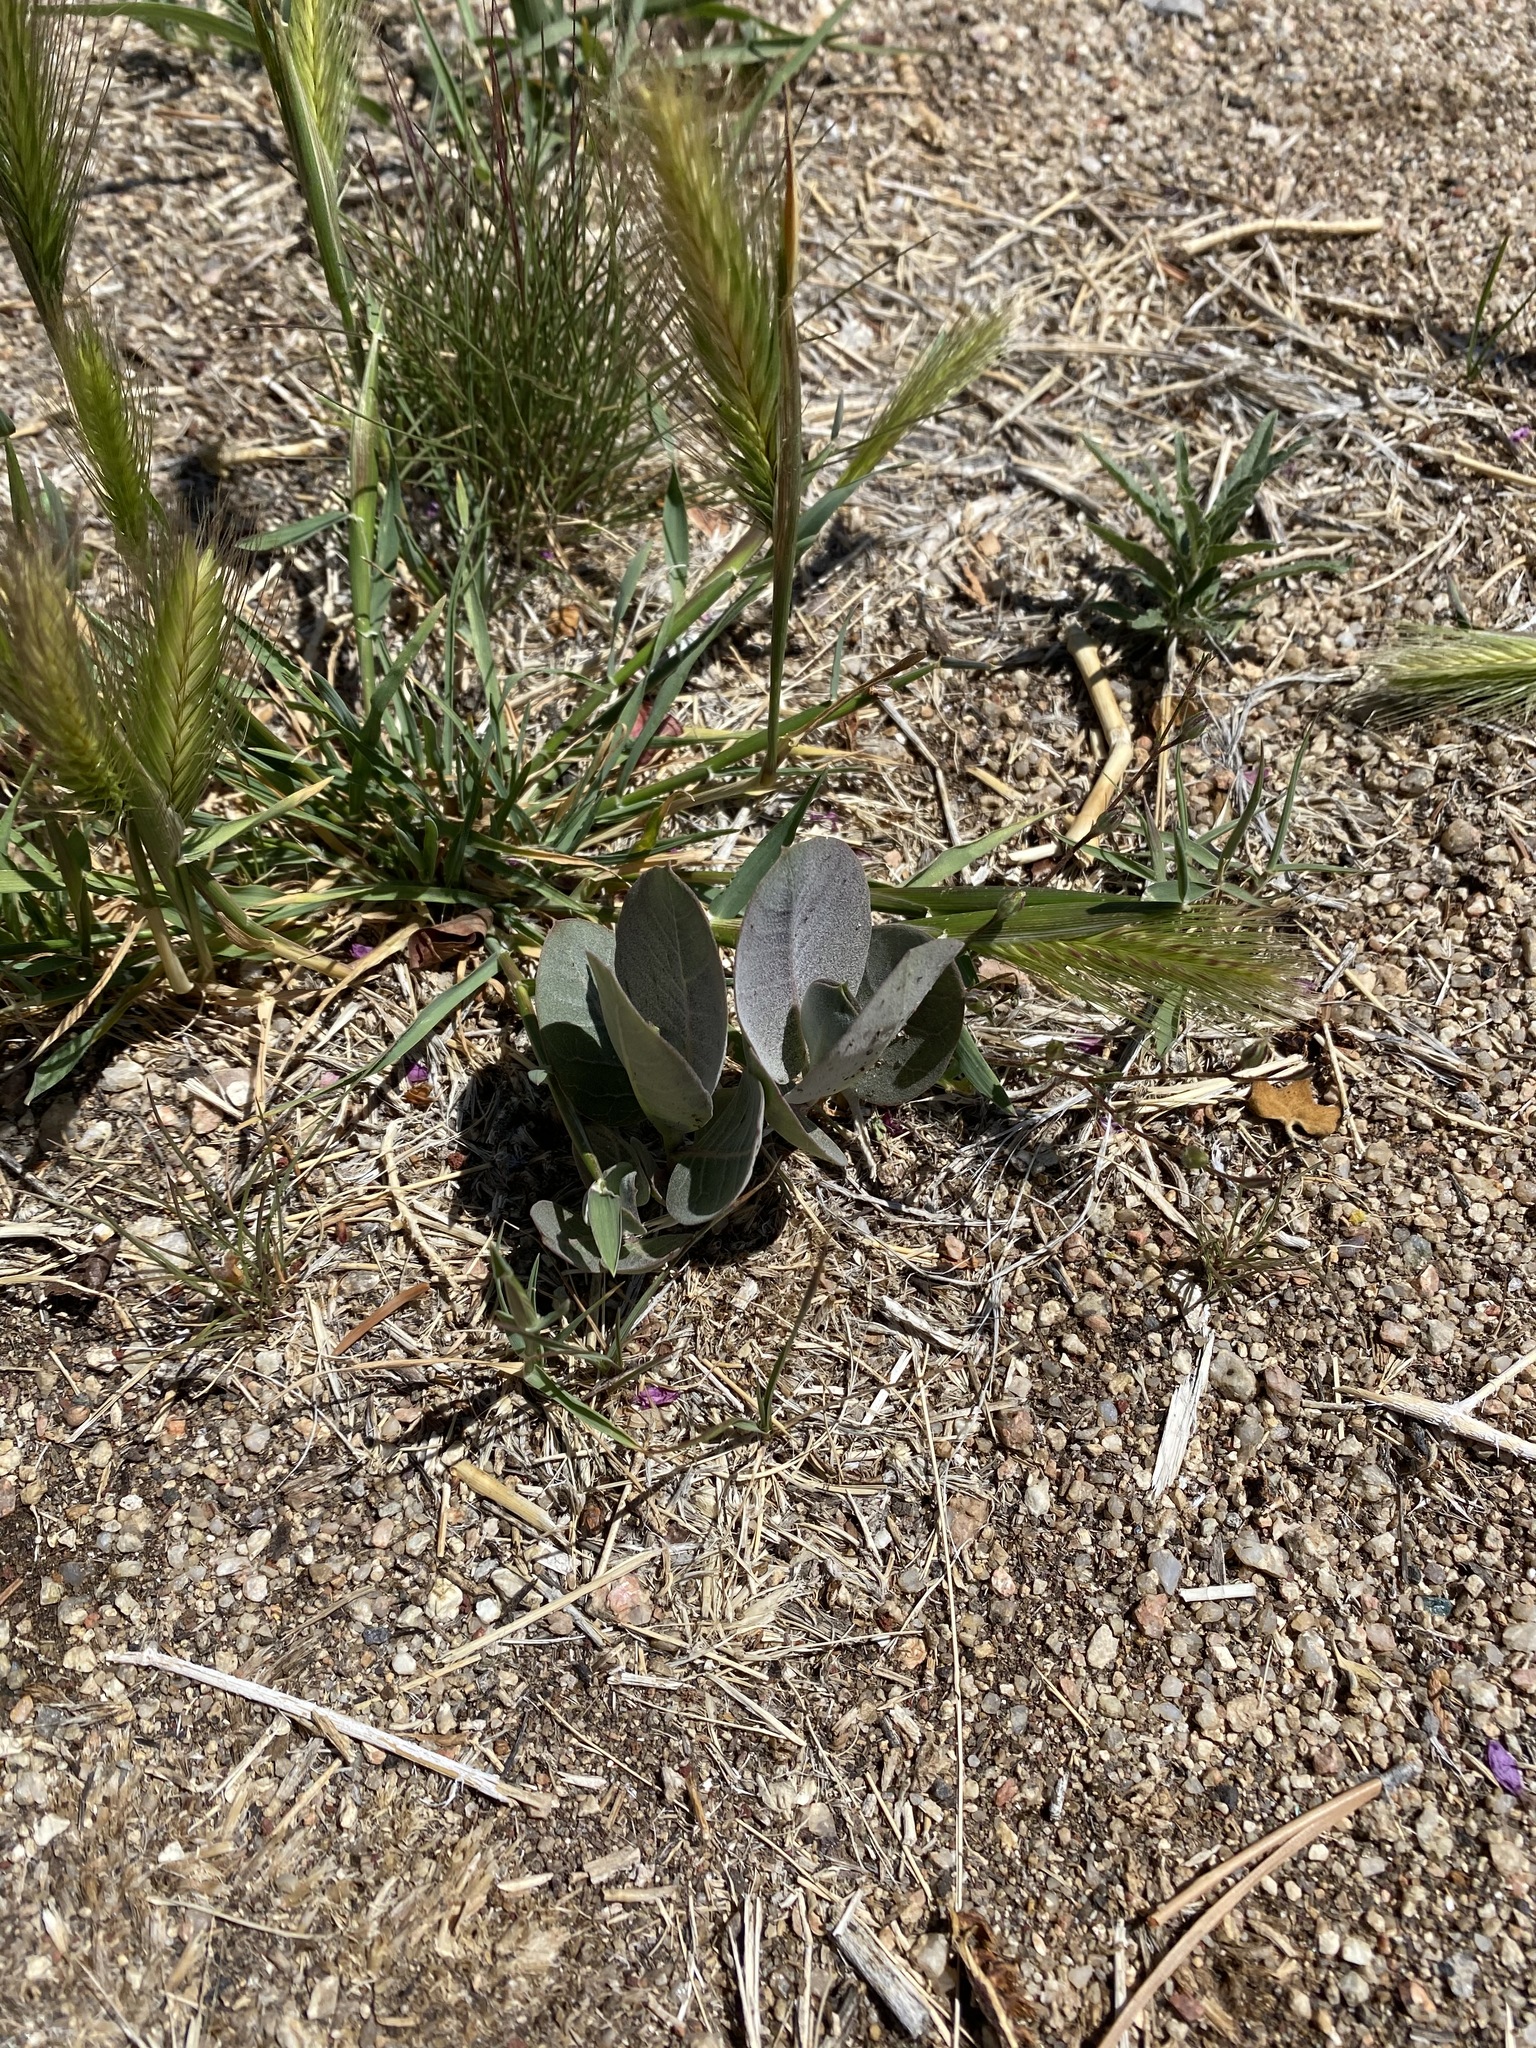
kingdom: Plantae
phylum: Tracheophyta
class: Magnoliopsida
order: Gentianales
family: Apocynaceae
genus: Asclepias
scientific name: Asclepias latifolia
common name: Broadleaf milkweed
